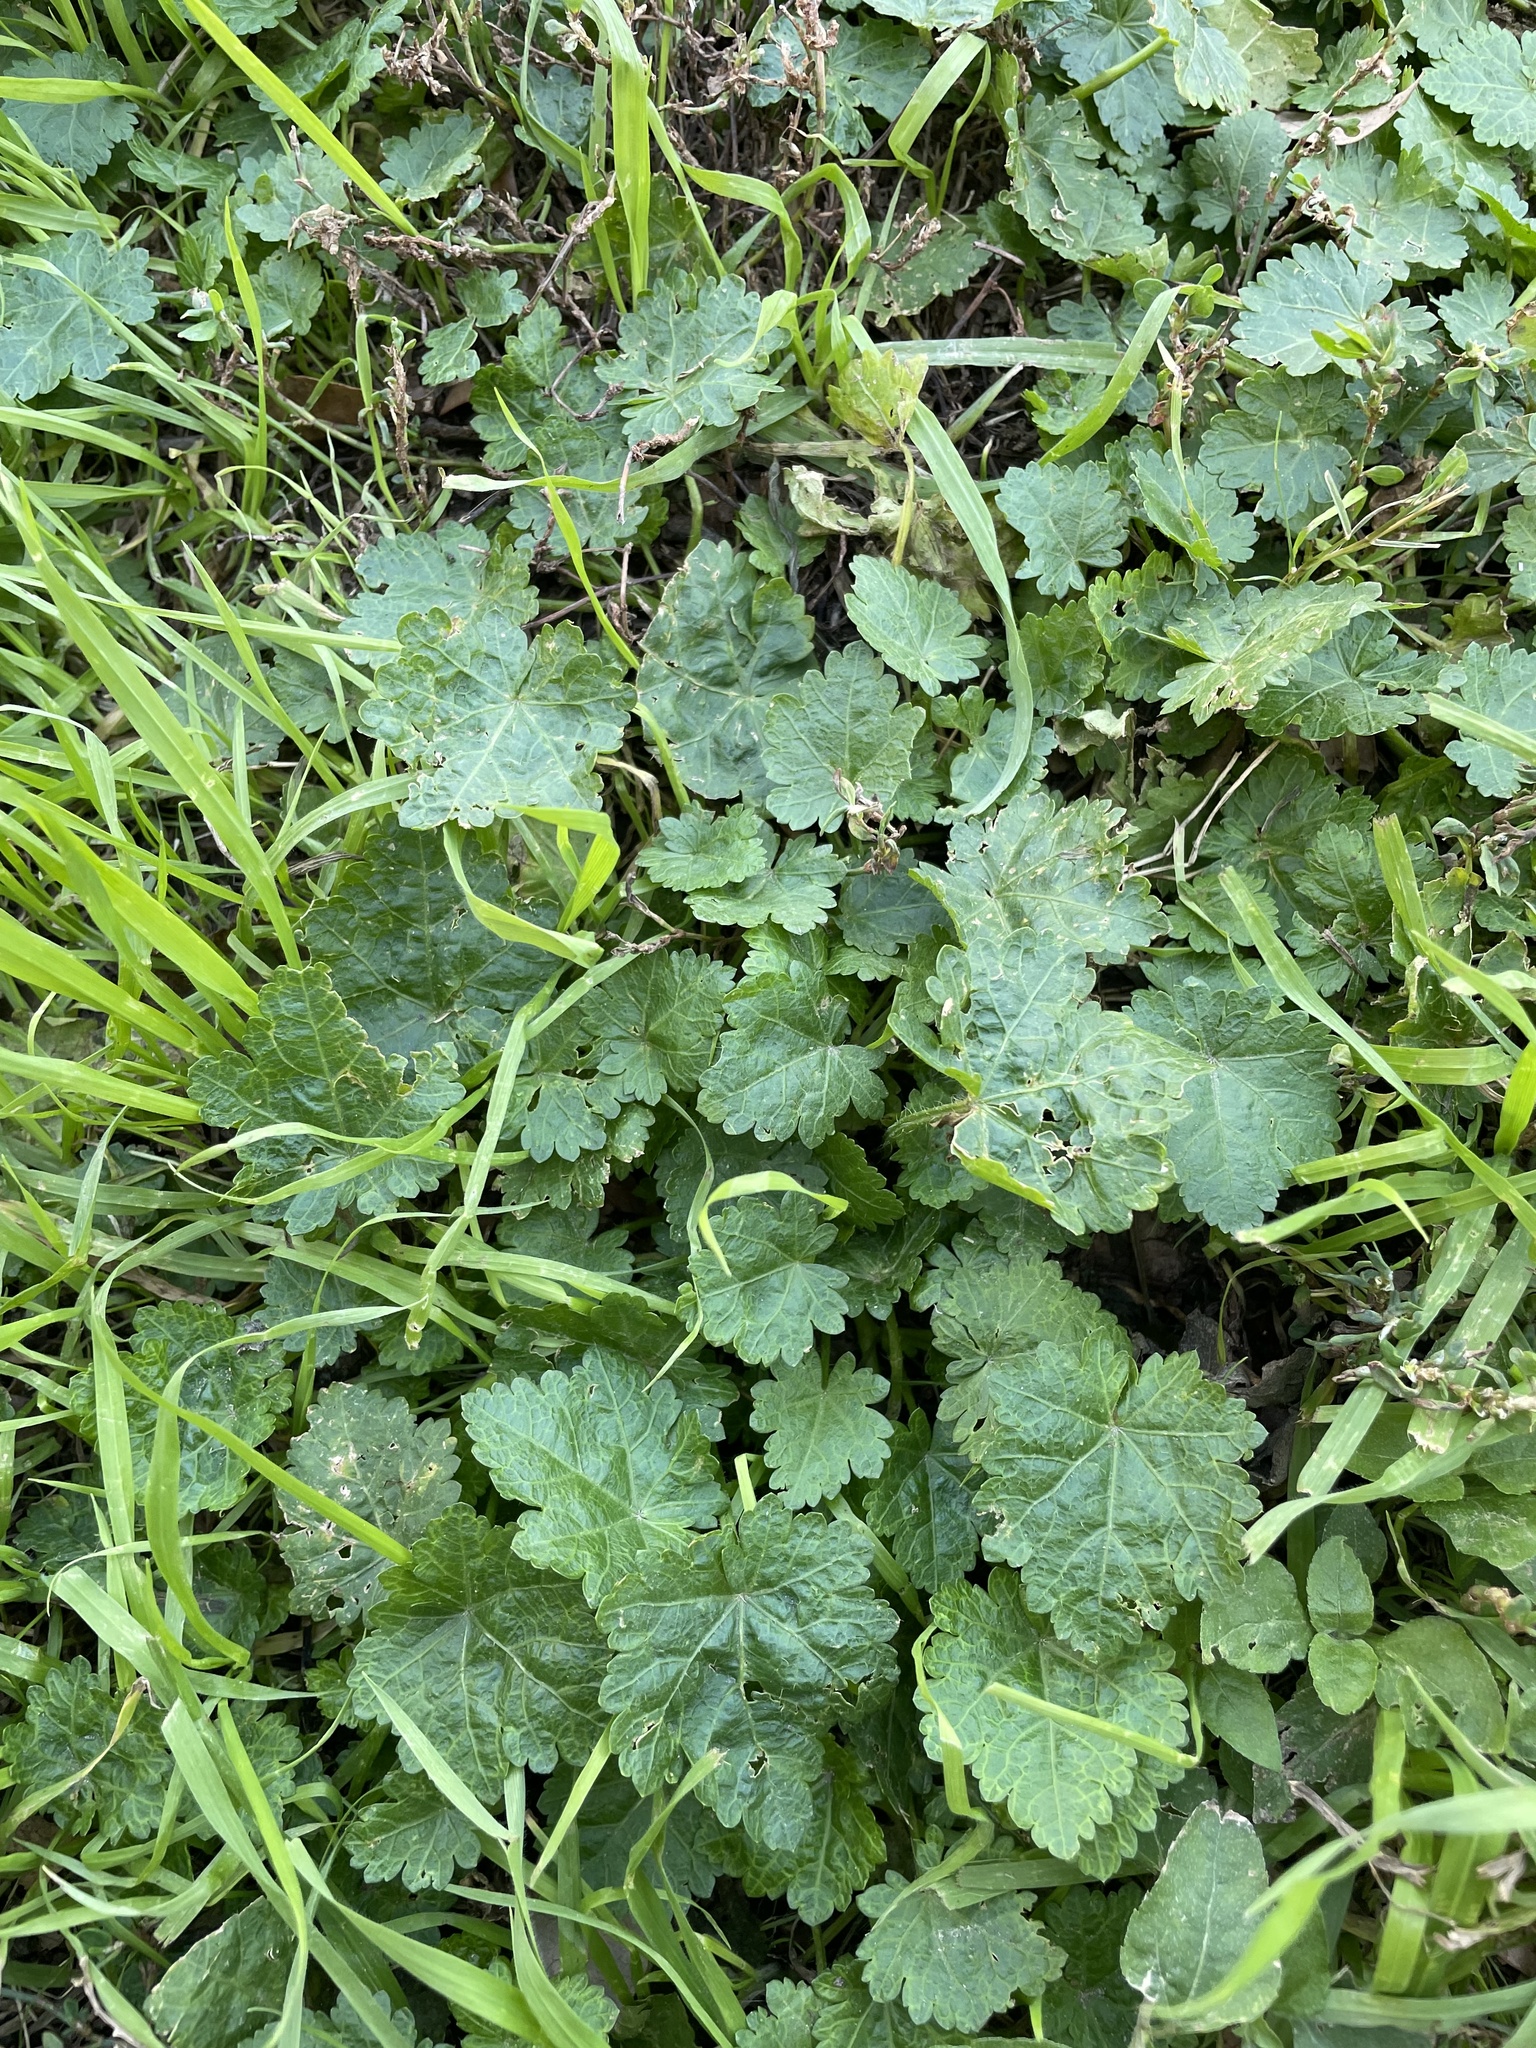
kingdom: Plantae
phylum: Tracheophyta
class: Magnoliopsida
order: Malvales
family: Malvaceae
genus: Modiola
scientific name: Modiola caroliniana
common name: Carolina bristlemallow
